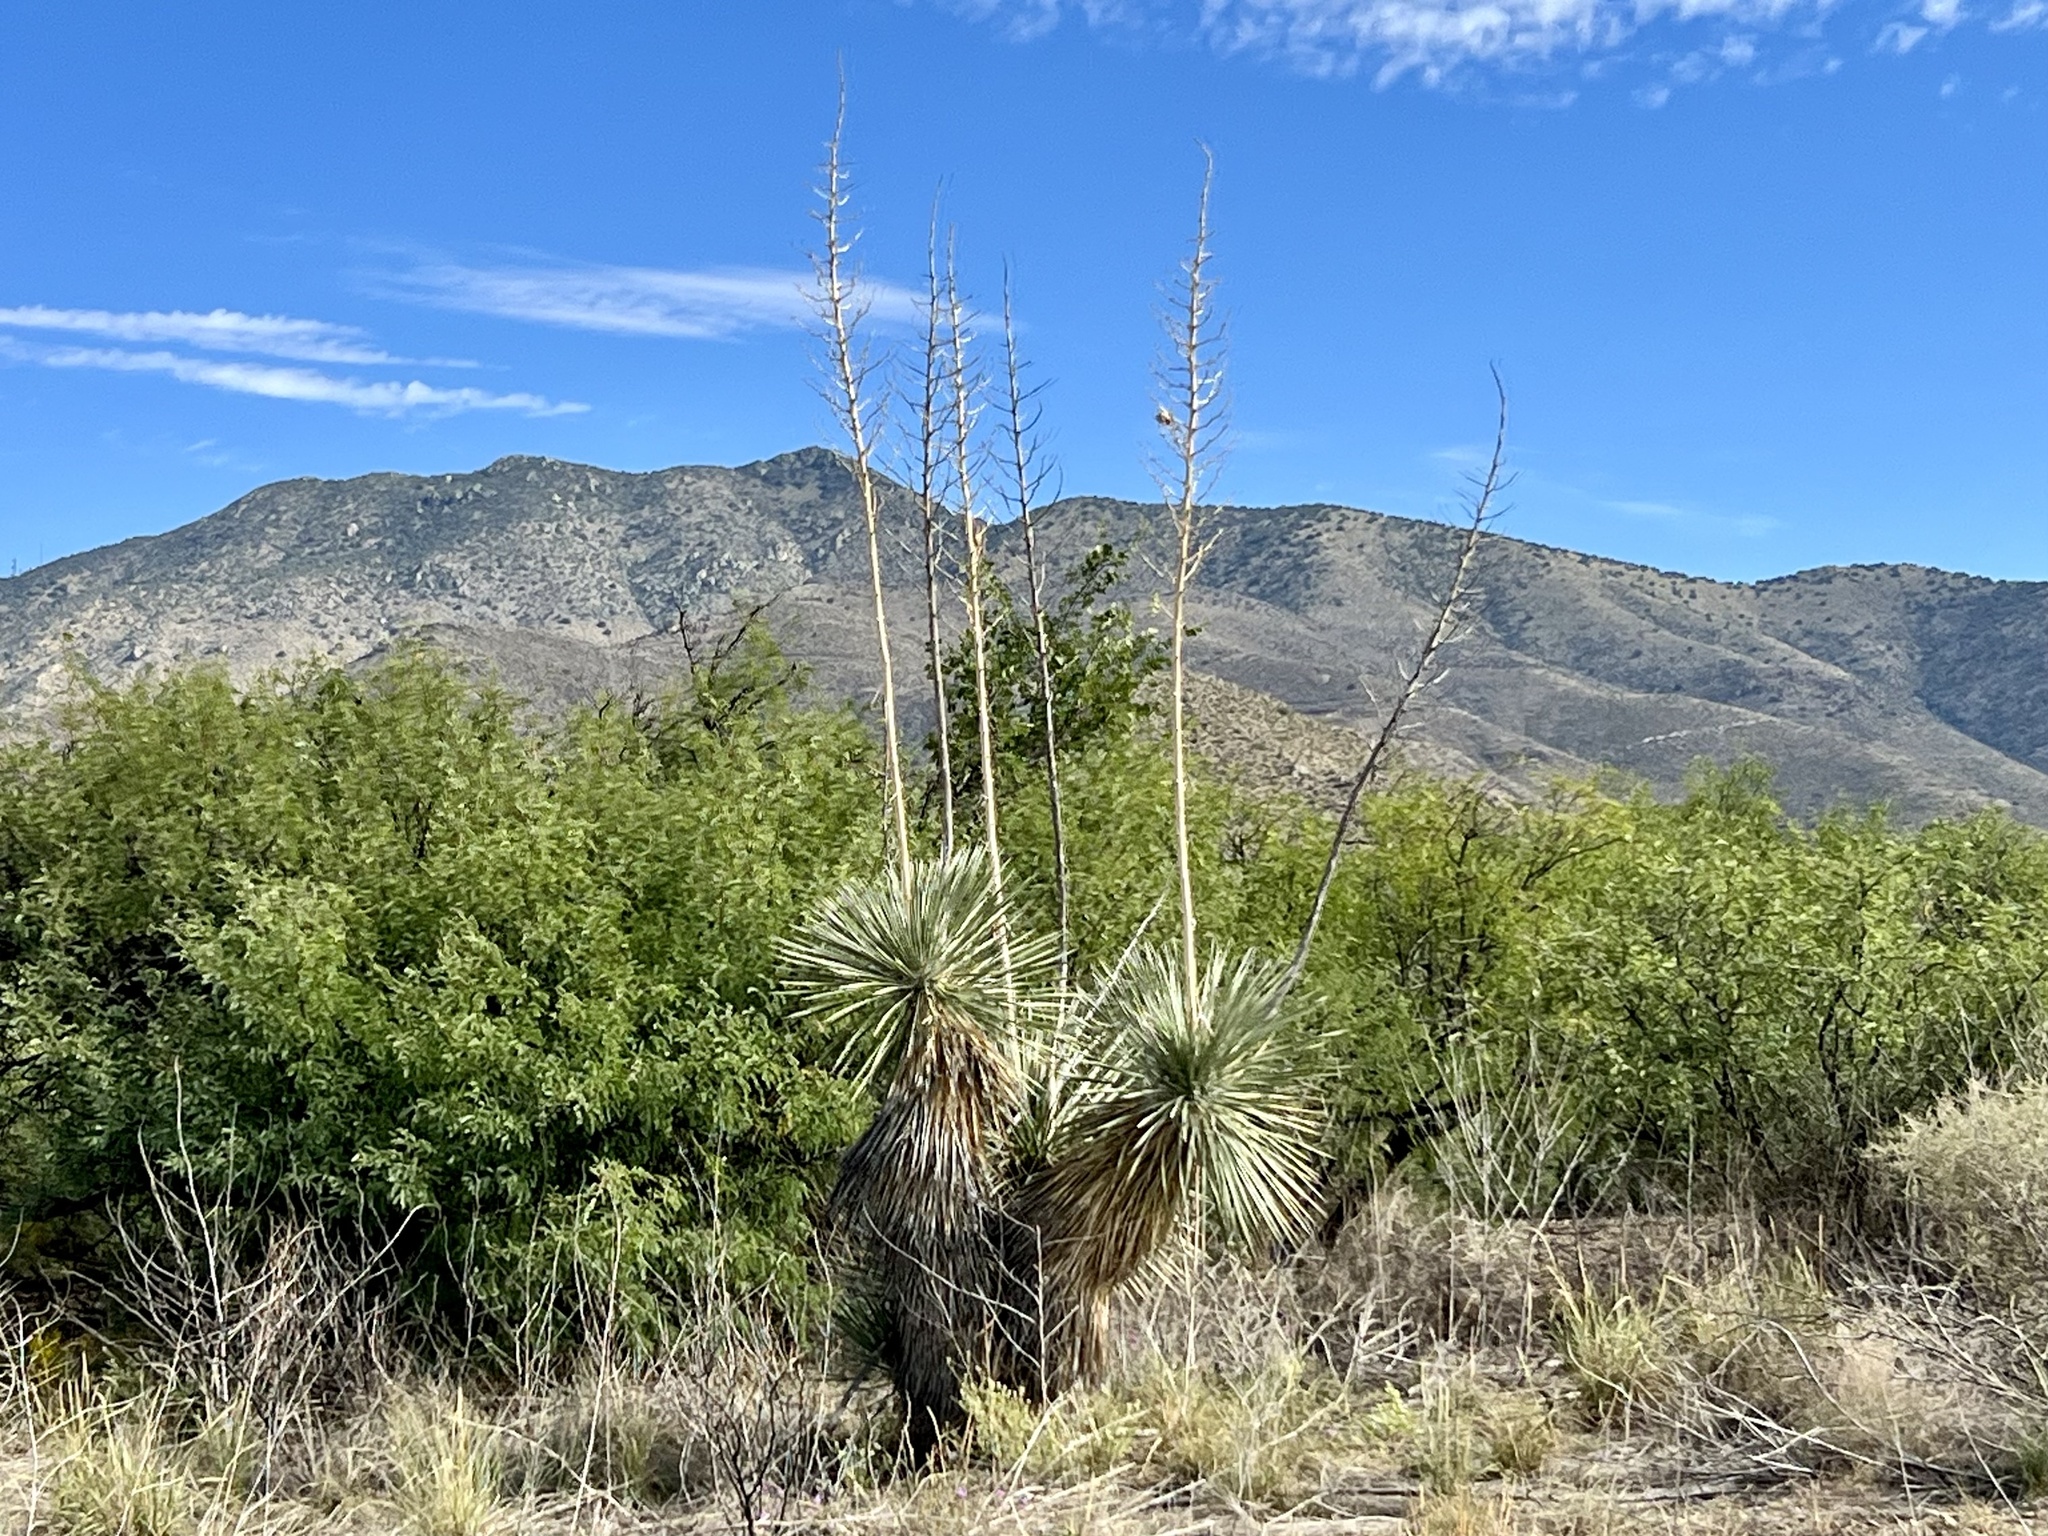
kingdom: Plantae
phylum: Tracheophyta
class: Liliopsida
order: Asparagales
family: Asparagaceae
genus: Yucca
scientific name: Yucca elata
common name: Palmella
